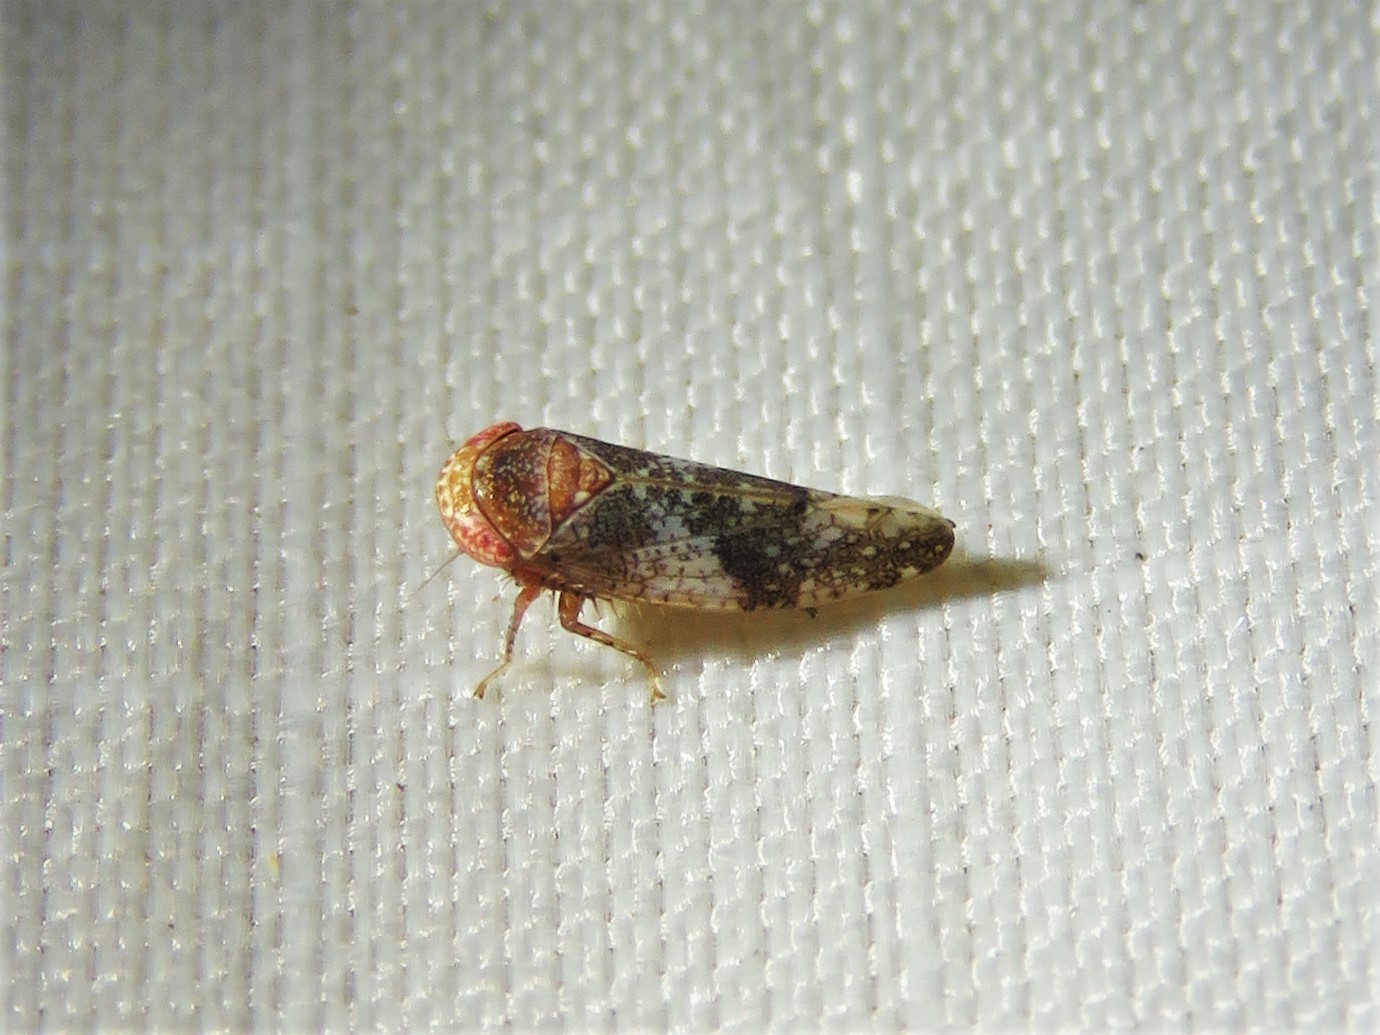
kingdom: Animalia
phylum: Arthropoda
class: Insecta
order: Hemiptera
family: Cicadellidae
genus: Norvellina
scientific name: Norvellina helenae
